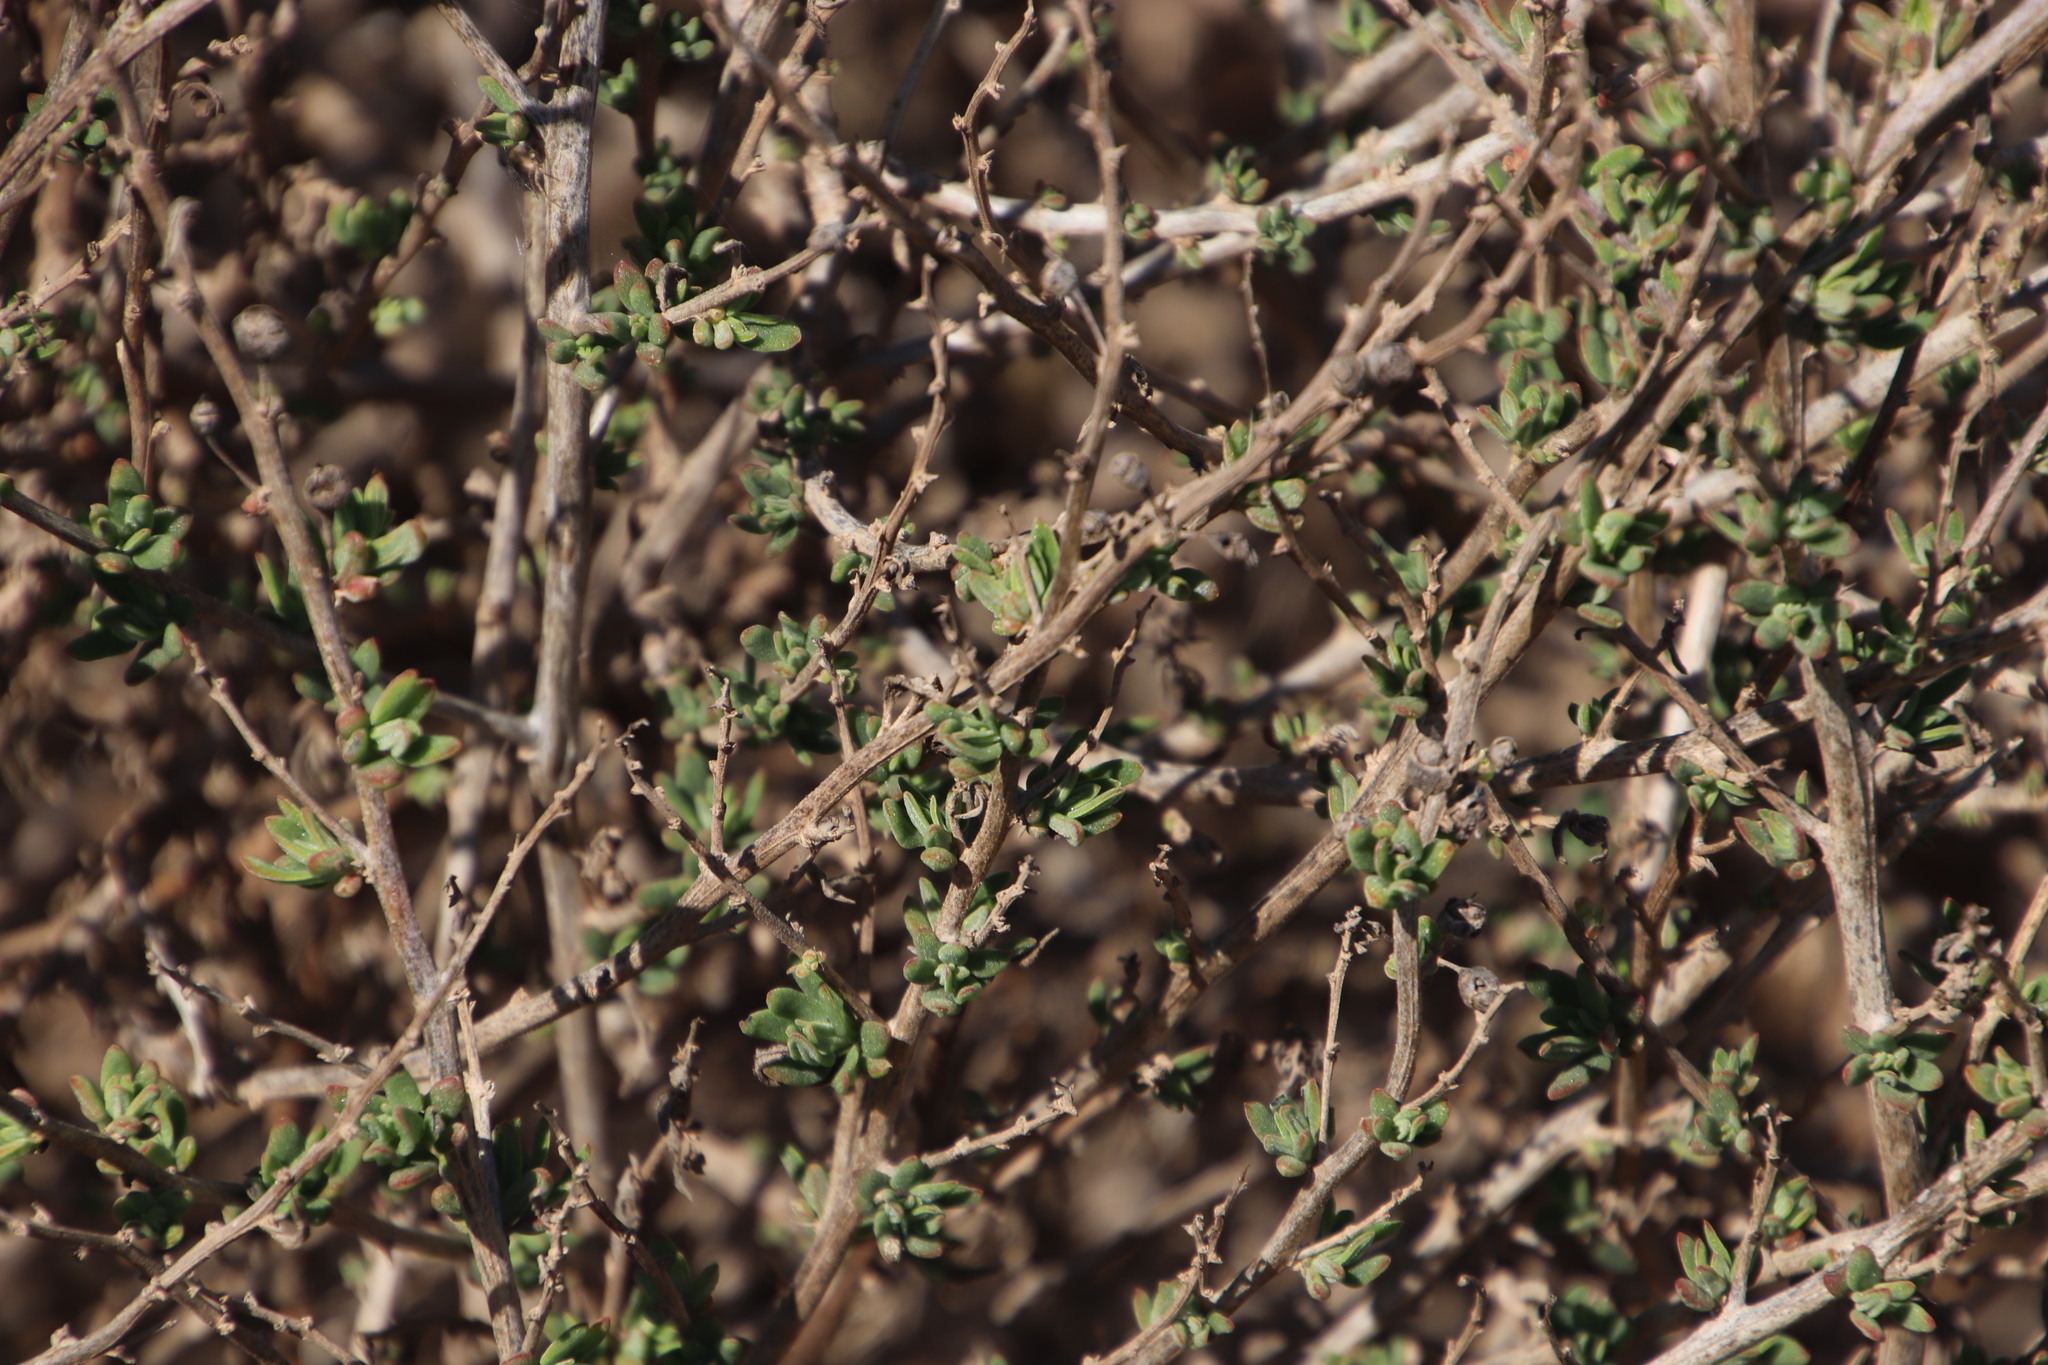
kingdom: Plantae
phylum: Tracheophyta
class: Magnoliopsida
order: Caryophyllales
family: Aizoaceae
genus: Tetragonia
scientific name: Tetragonia saligna
